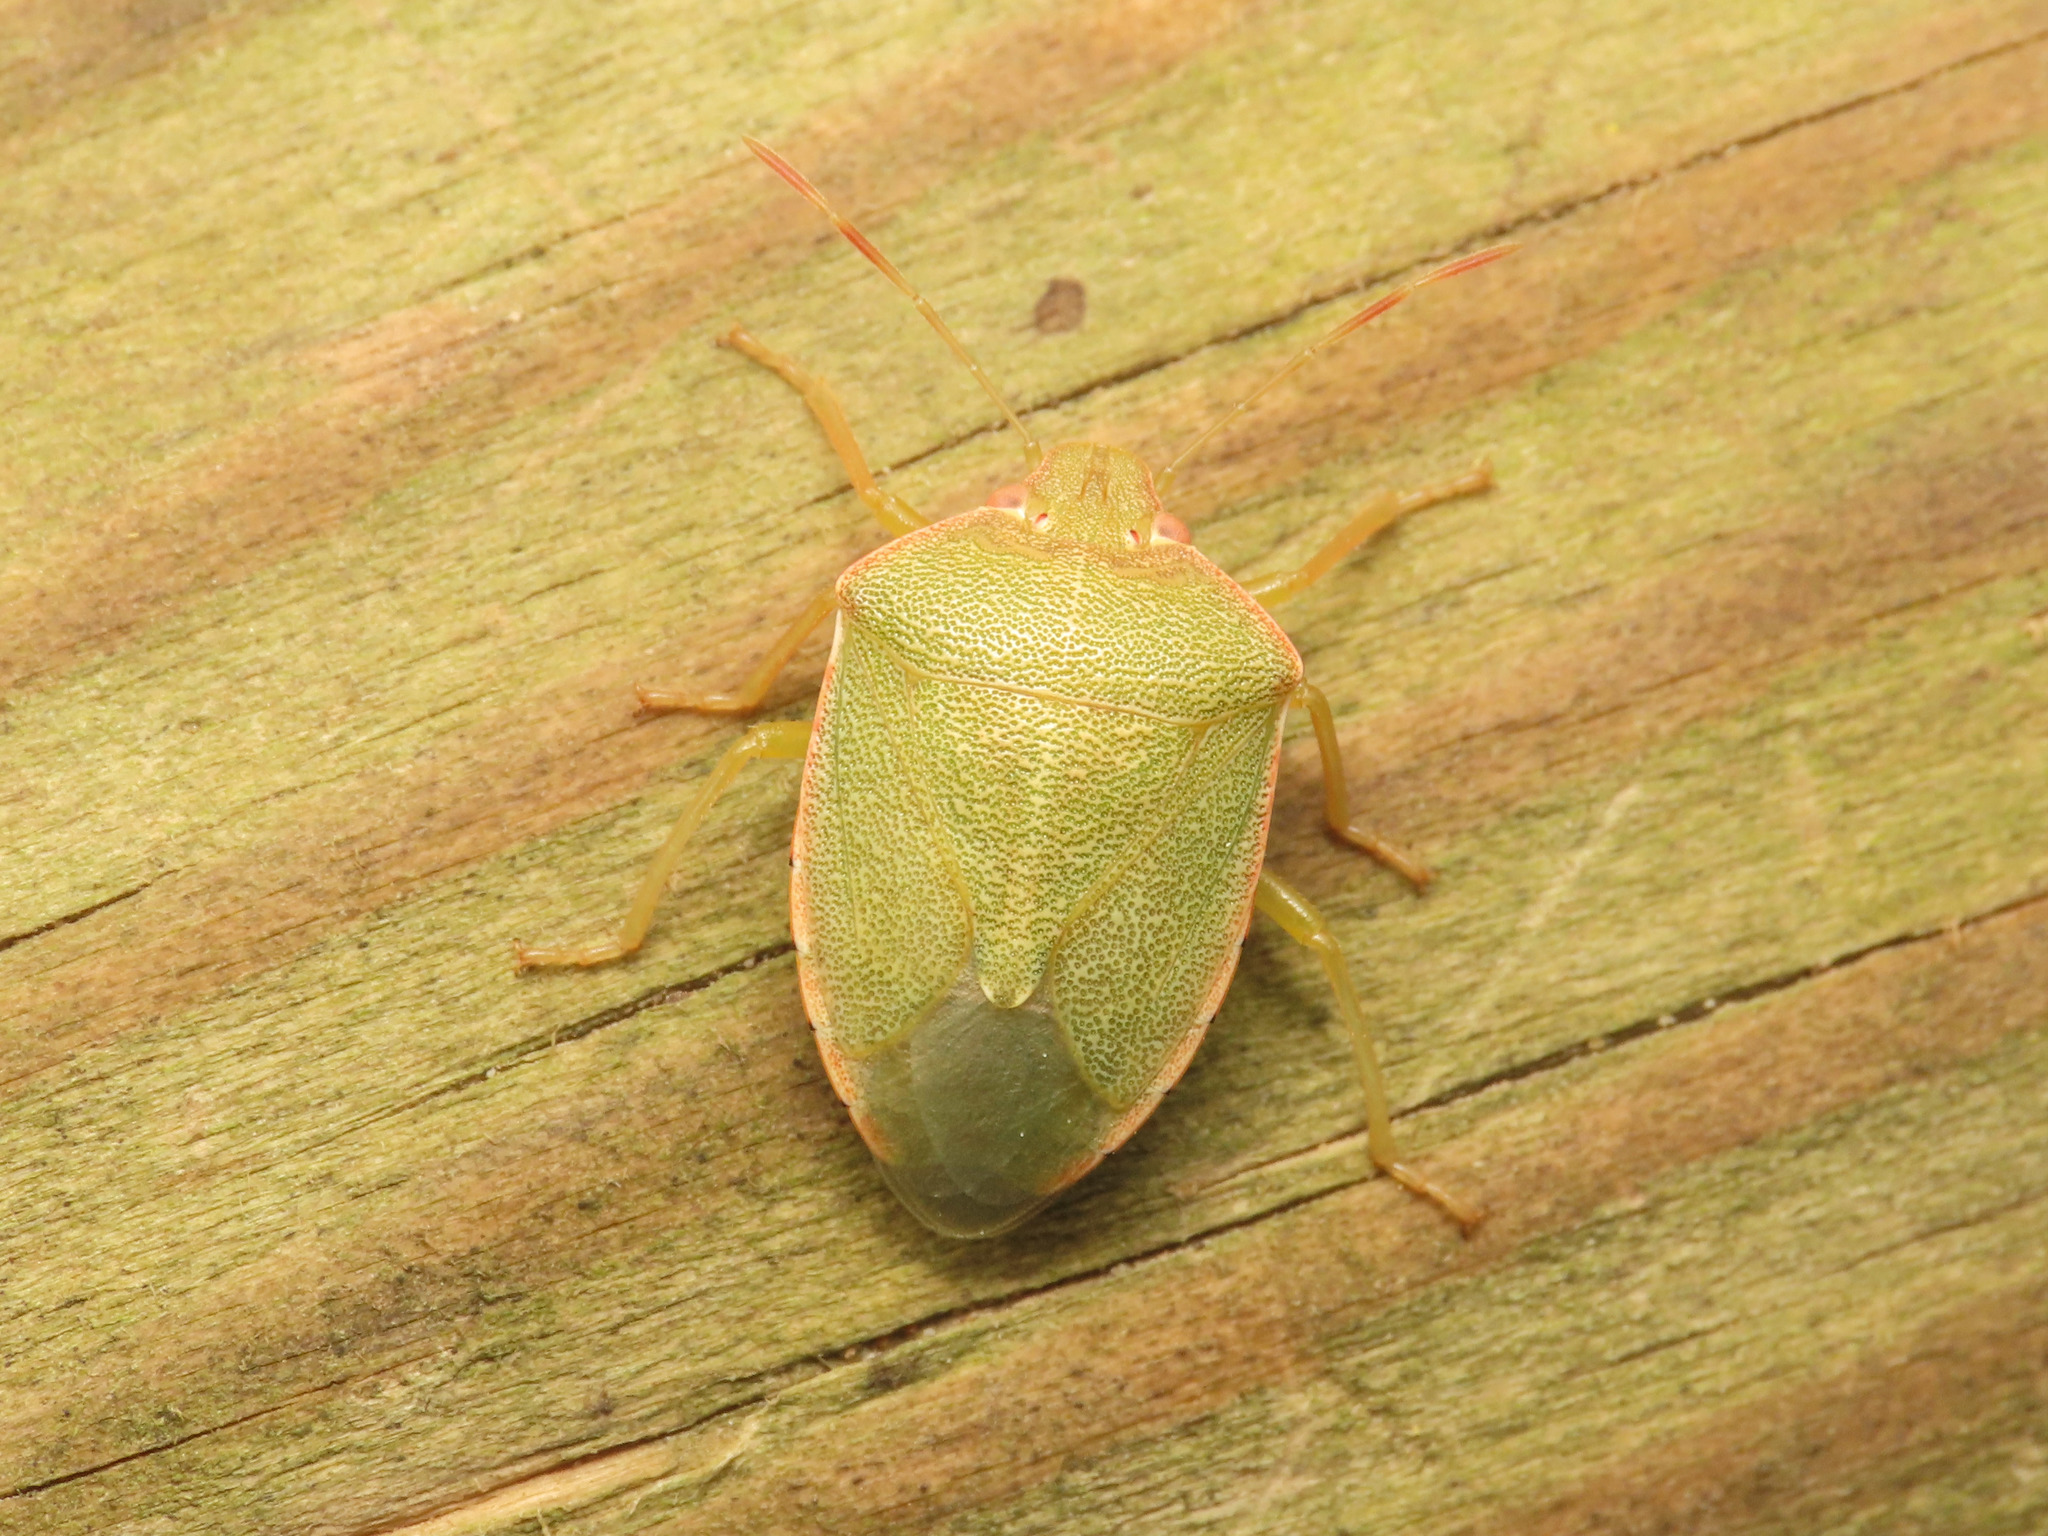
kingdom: Animalia
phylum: Arthropoda
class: Insecta
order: Hemiptera
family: Pentatomidae
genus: Acrosternum
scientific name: Acrosternum heegeri
